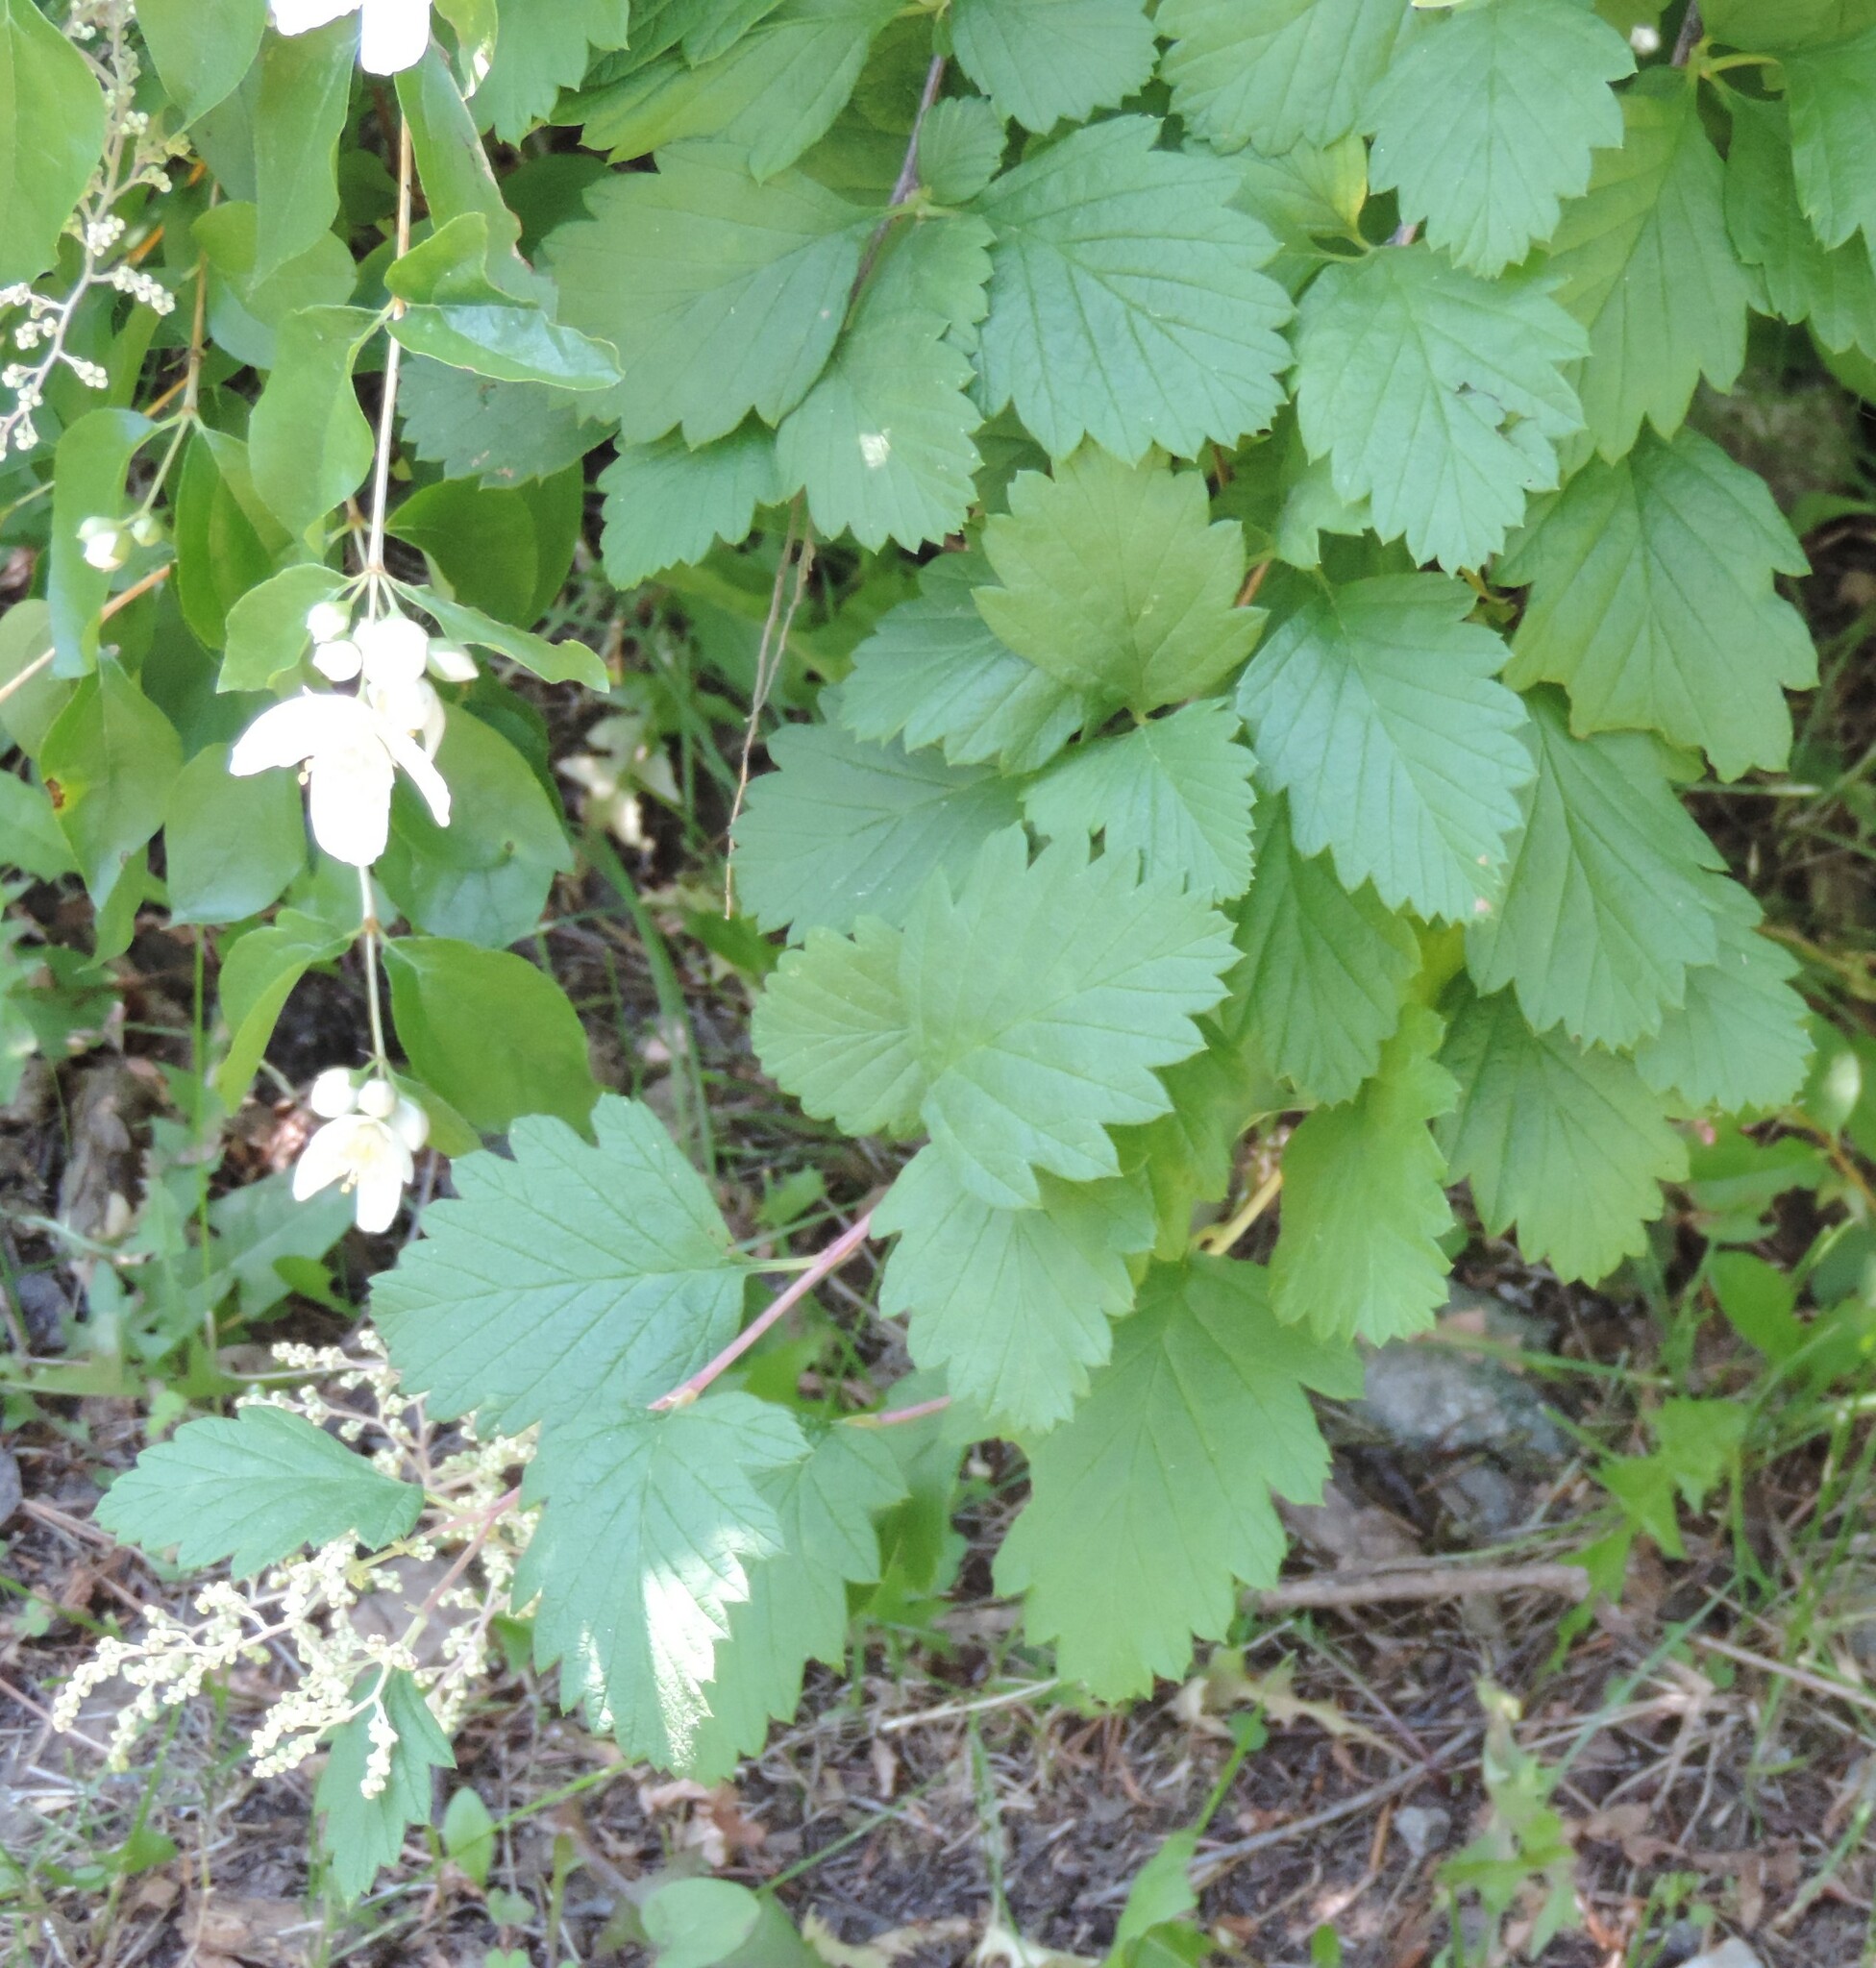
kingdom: Plantae
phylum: Tracheophyta
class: Magnoliopsida
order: Rosales
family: Rosaceae
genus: Holodiscus
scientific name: Holodiscus discolor
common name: Oceanspray
